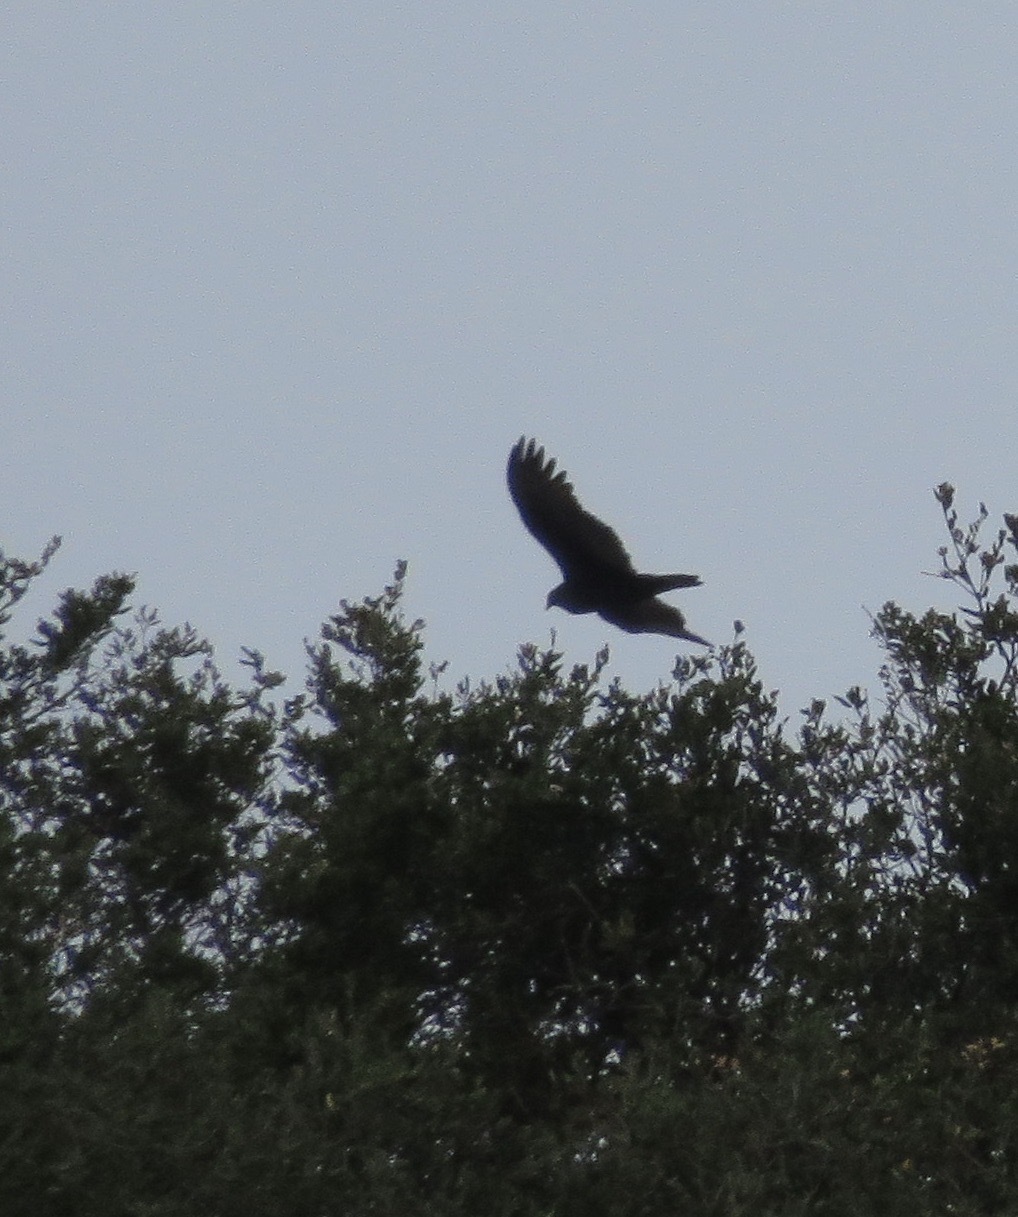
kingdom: Animalia
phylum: Chordata
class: Aves
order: Accipitriformes
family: Cathartidae
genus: Cathartes
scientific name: Cathartes aura
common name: Turkey vulture
